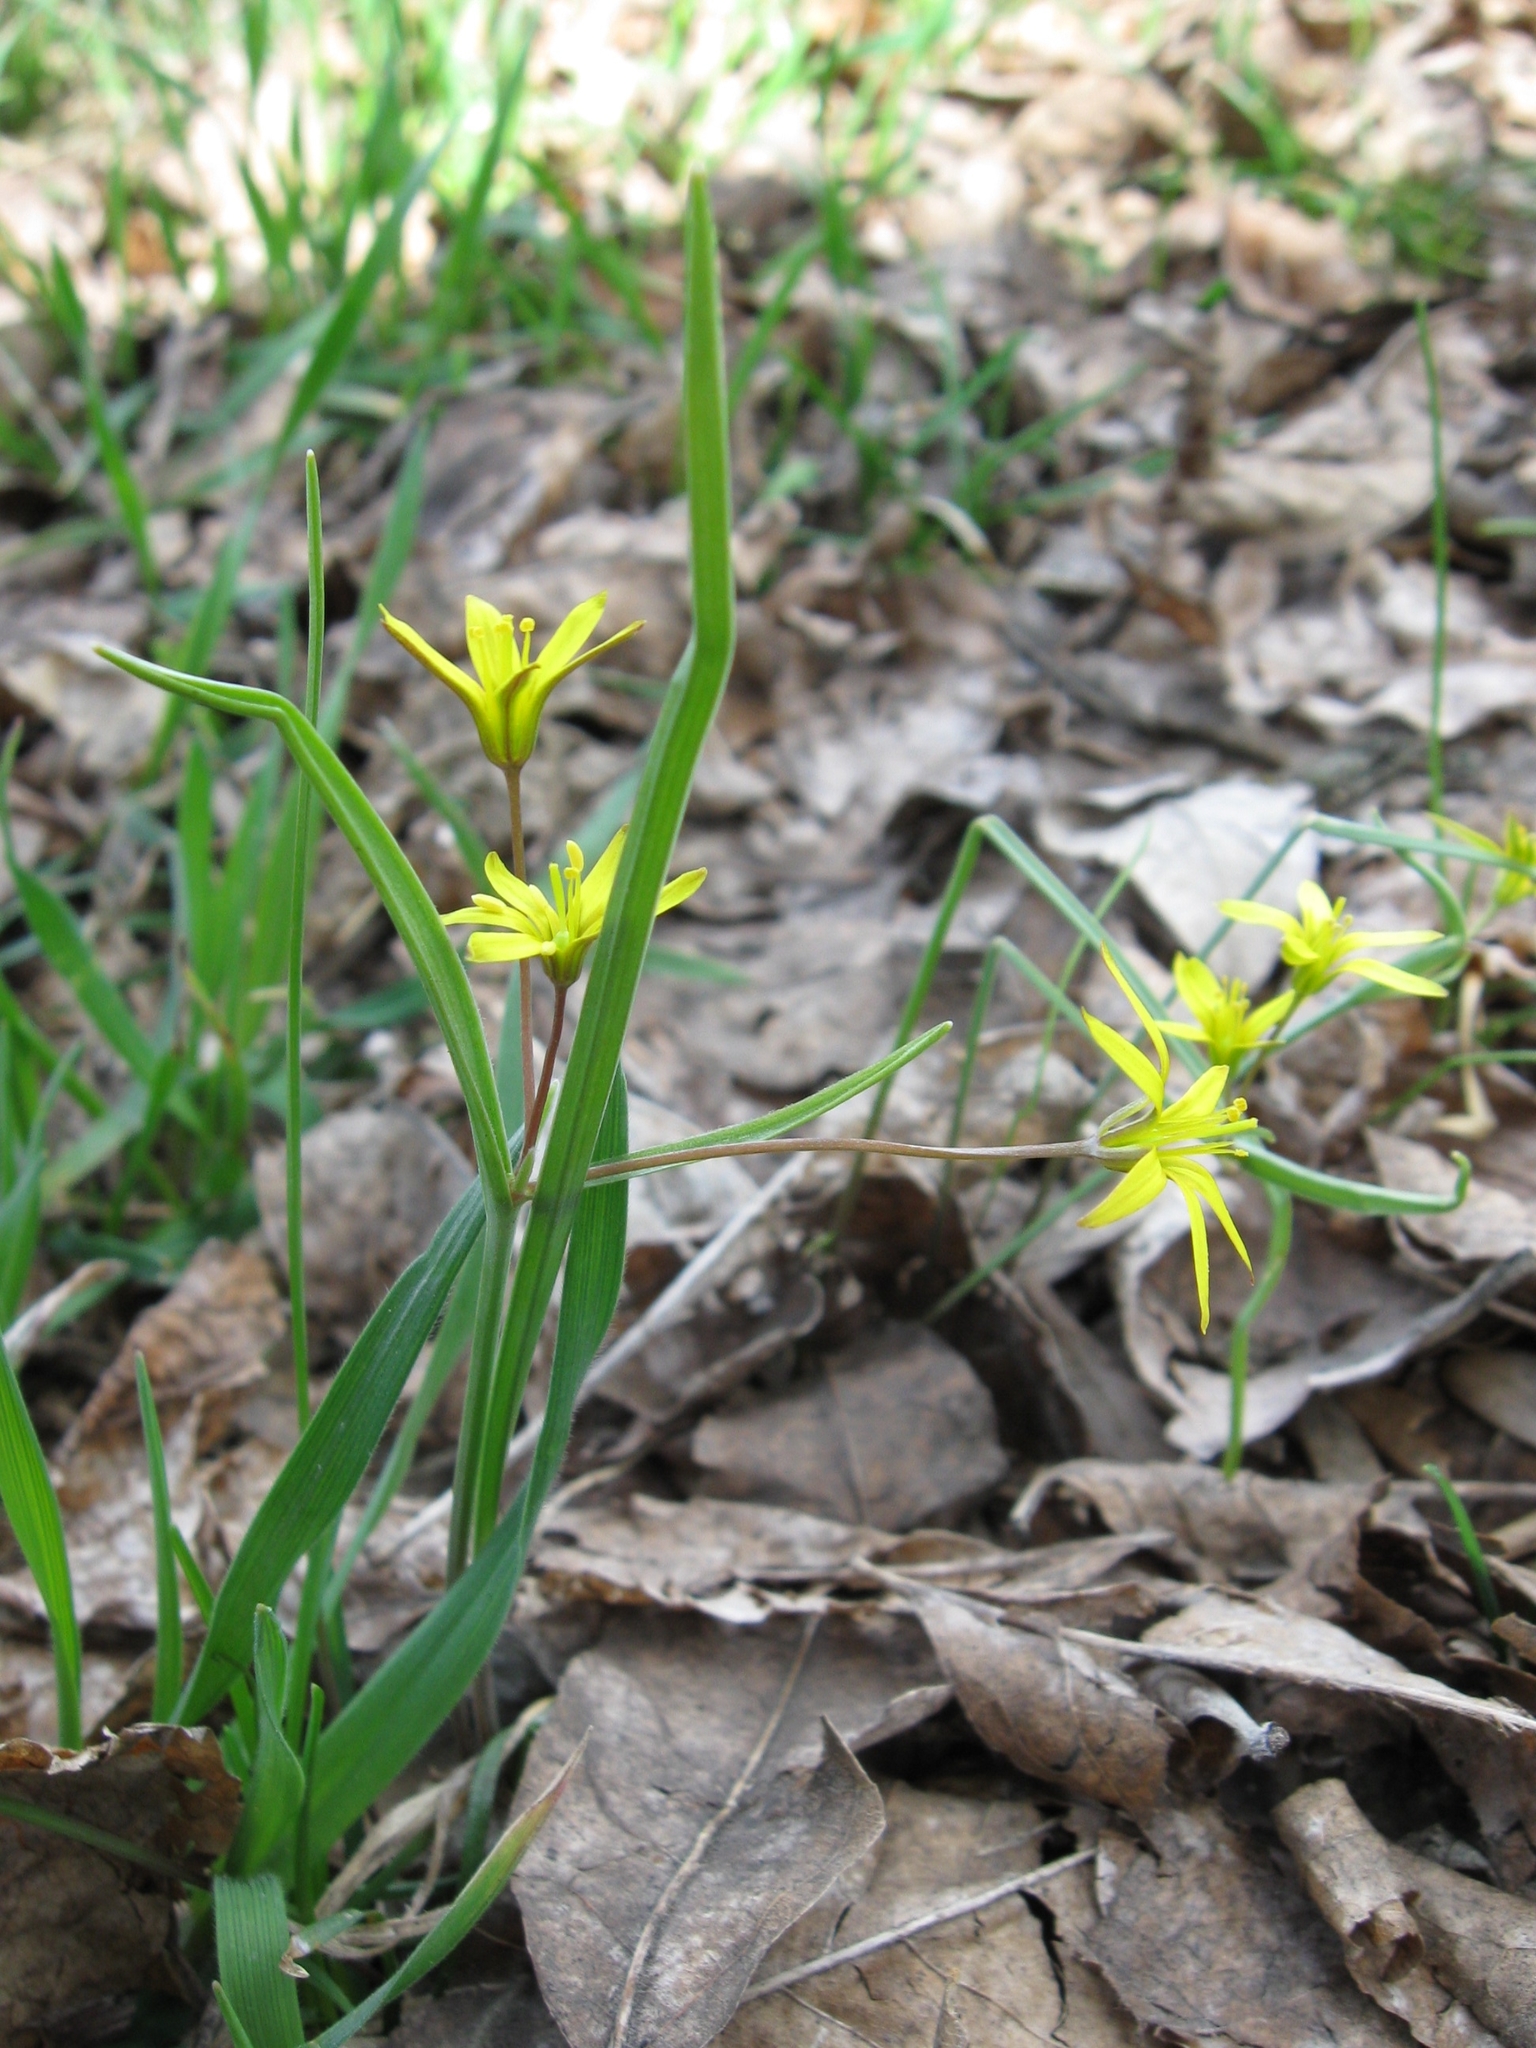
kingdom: Plantae
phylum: Tracheophyta
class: Liliopsida
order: Liliales
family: Liliaceae
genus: Gagea
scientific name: Gagea fragifera
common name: Lily
